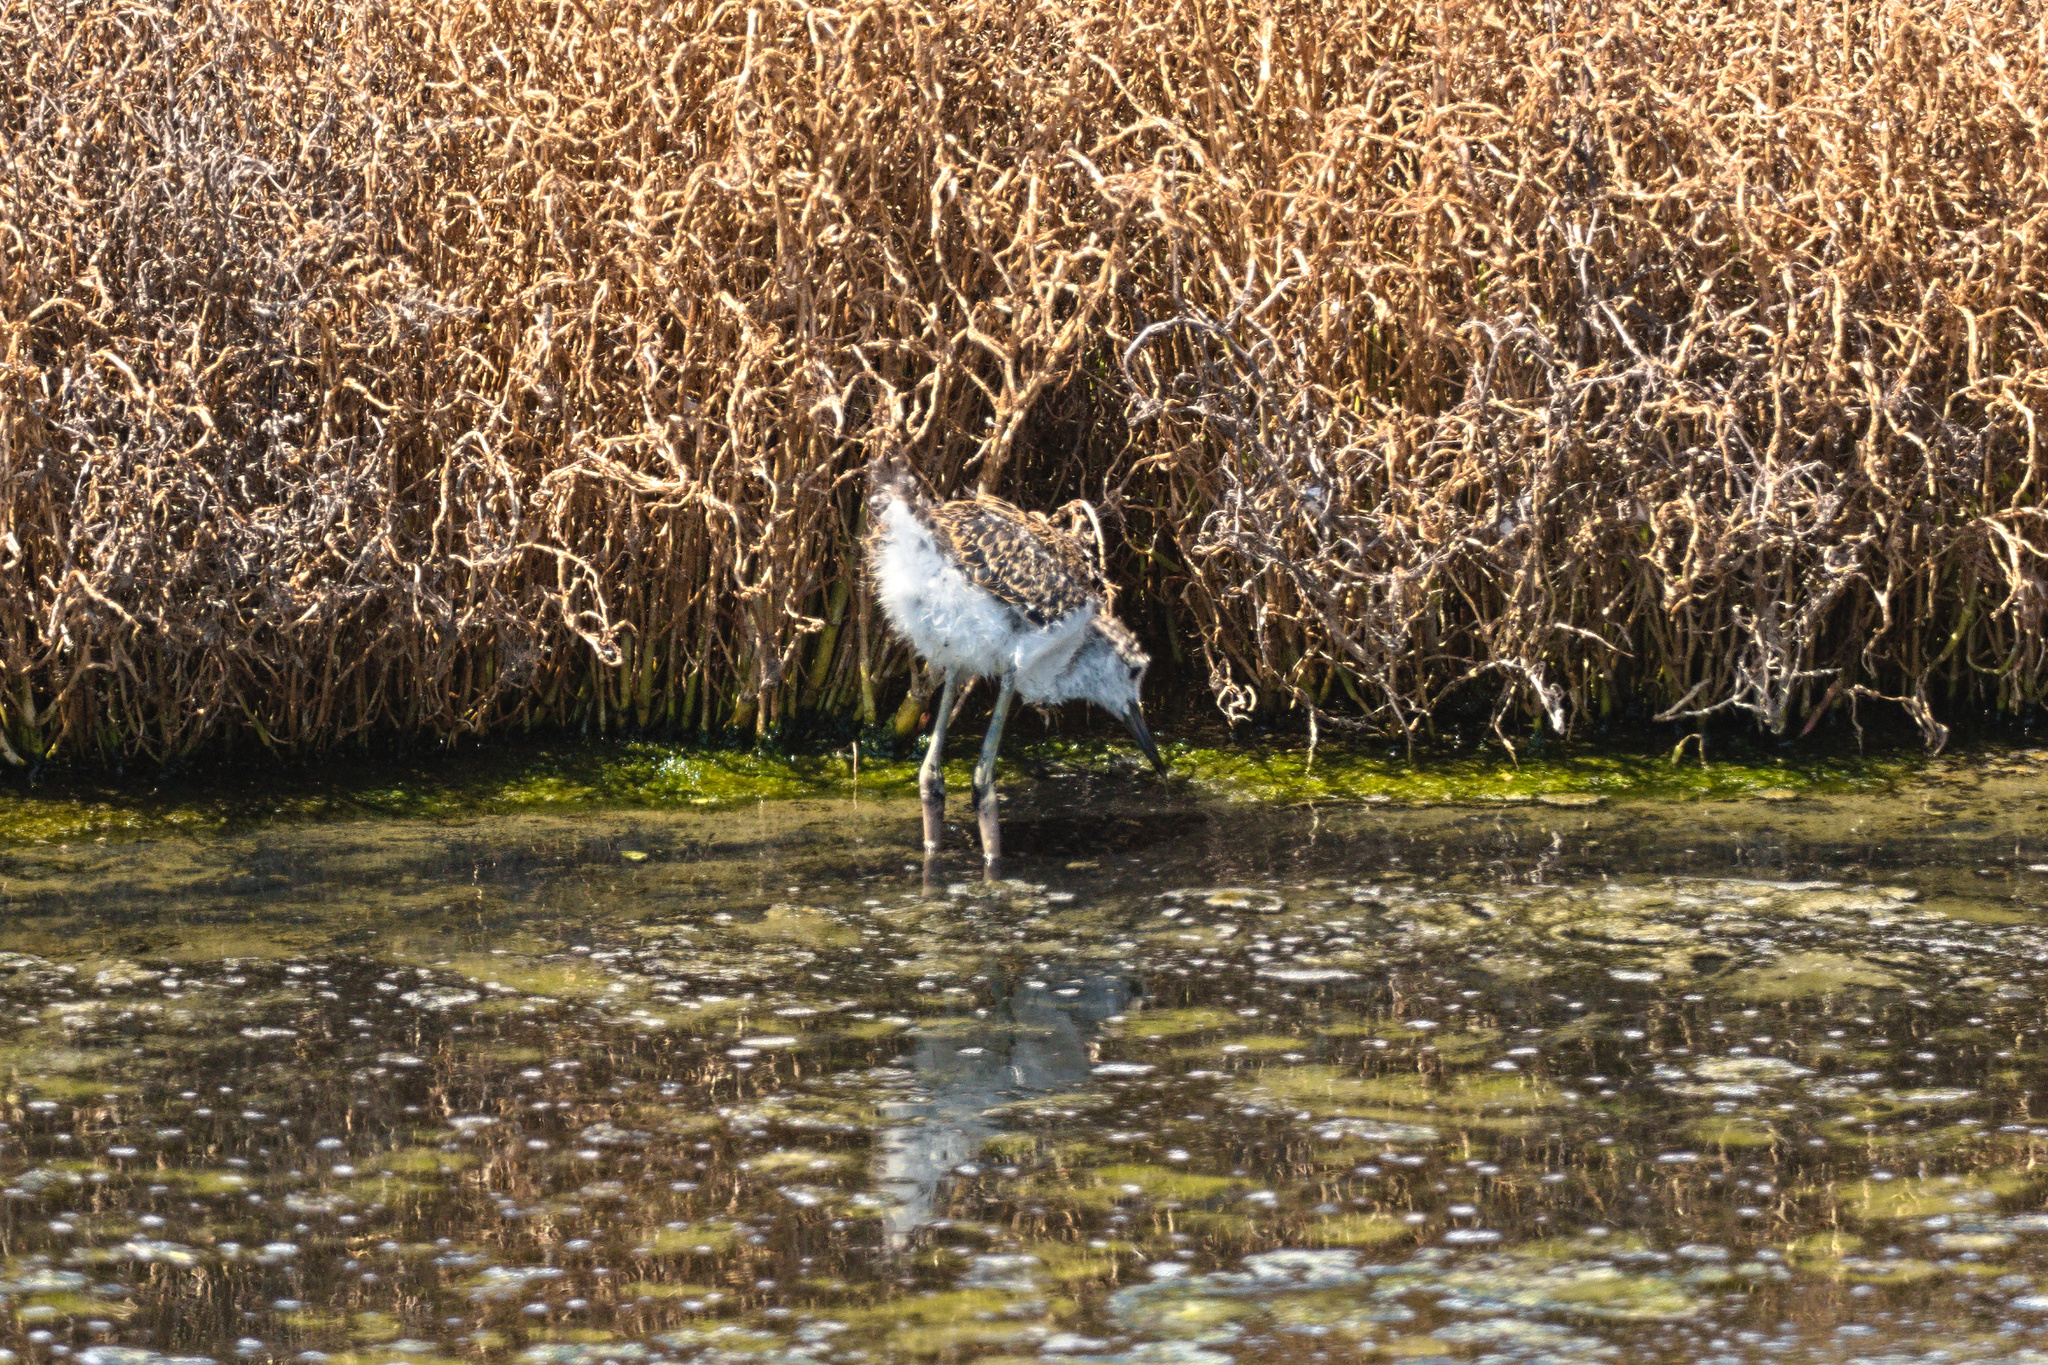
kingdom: Animalia
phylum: Chordata
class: Aves
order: Charadriiformes
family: Recurvirostridae
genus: Himantopus
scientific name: Himantopus himantopus
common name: Black-winged stilt
